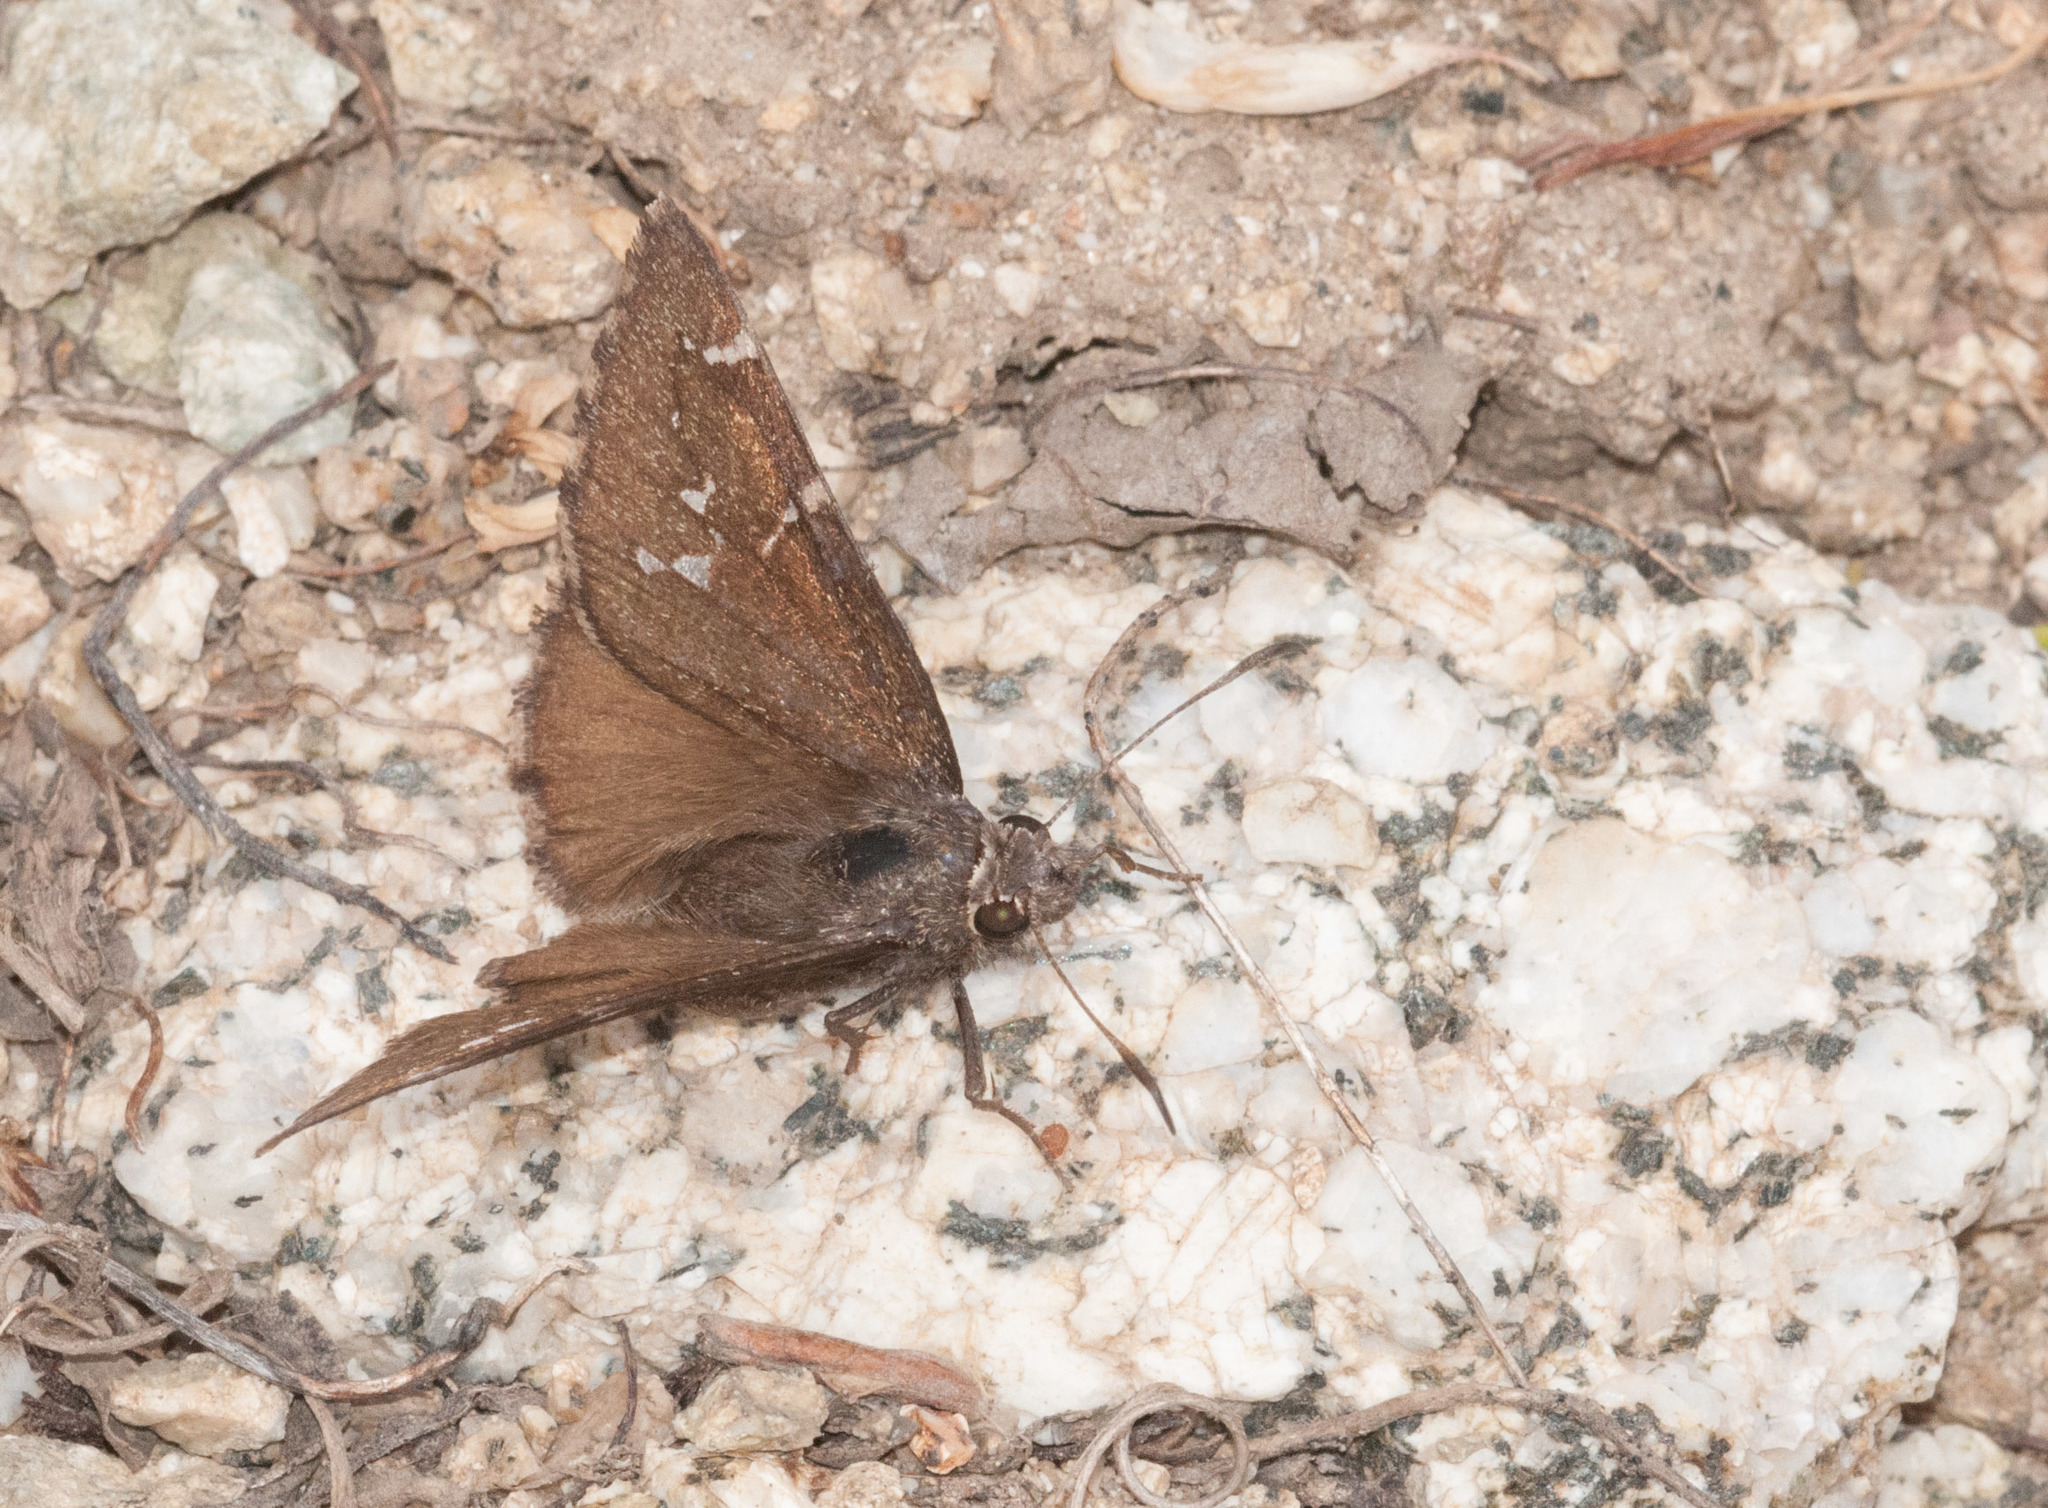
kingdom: Animalia
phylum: Arthropoda
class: Insecta
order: Lepidoptera
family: Hesperiidae
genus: Thorybes
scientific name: Thorybes pylades
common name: Northern cloudywing
